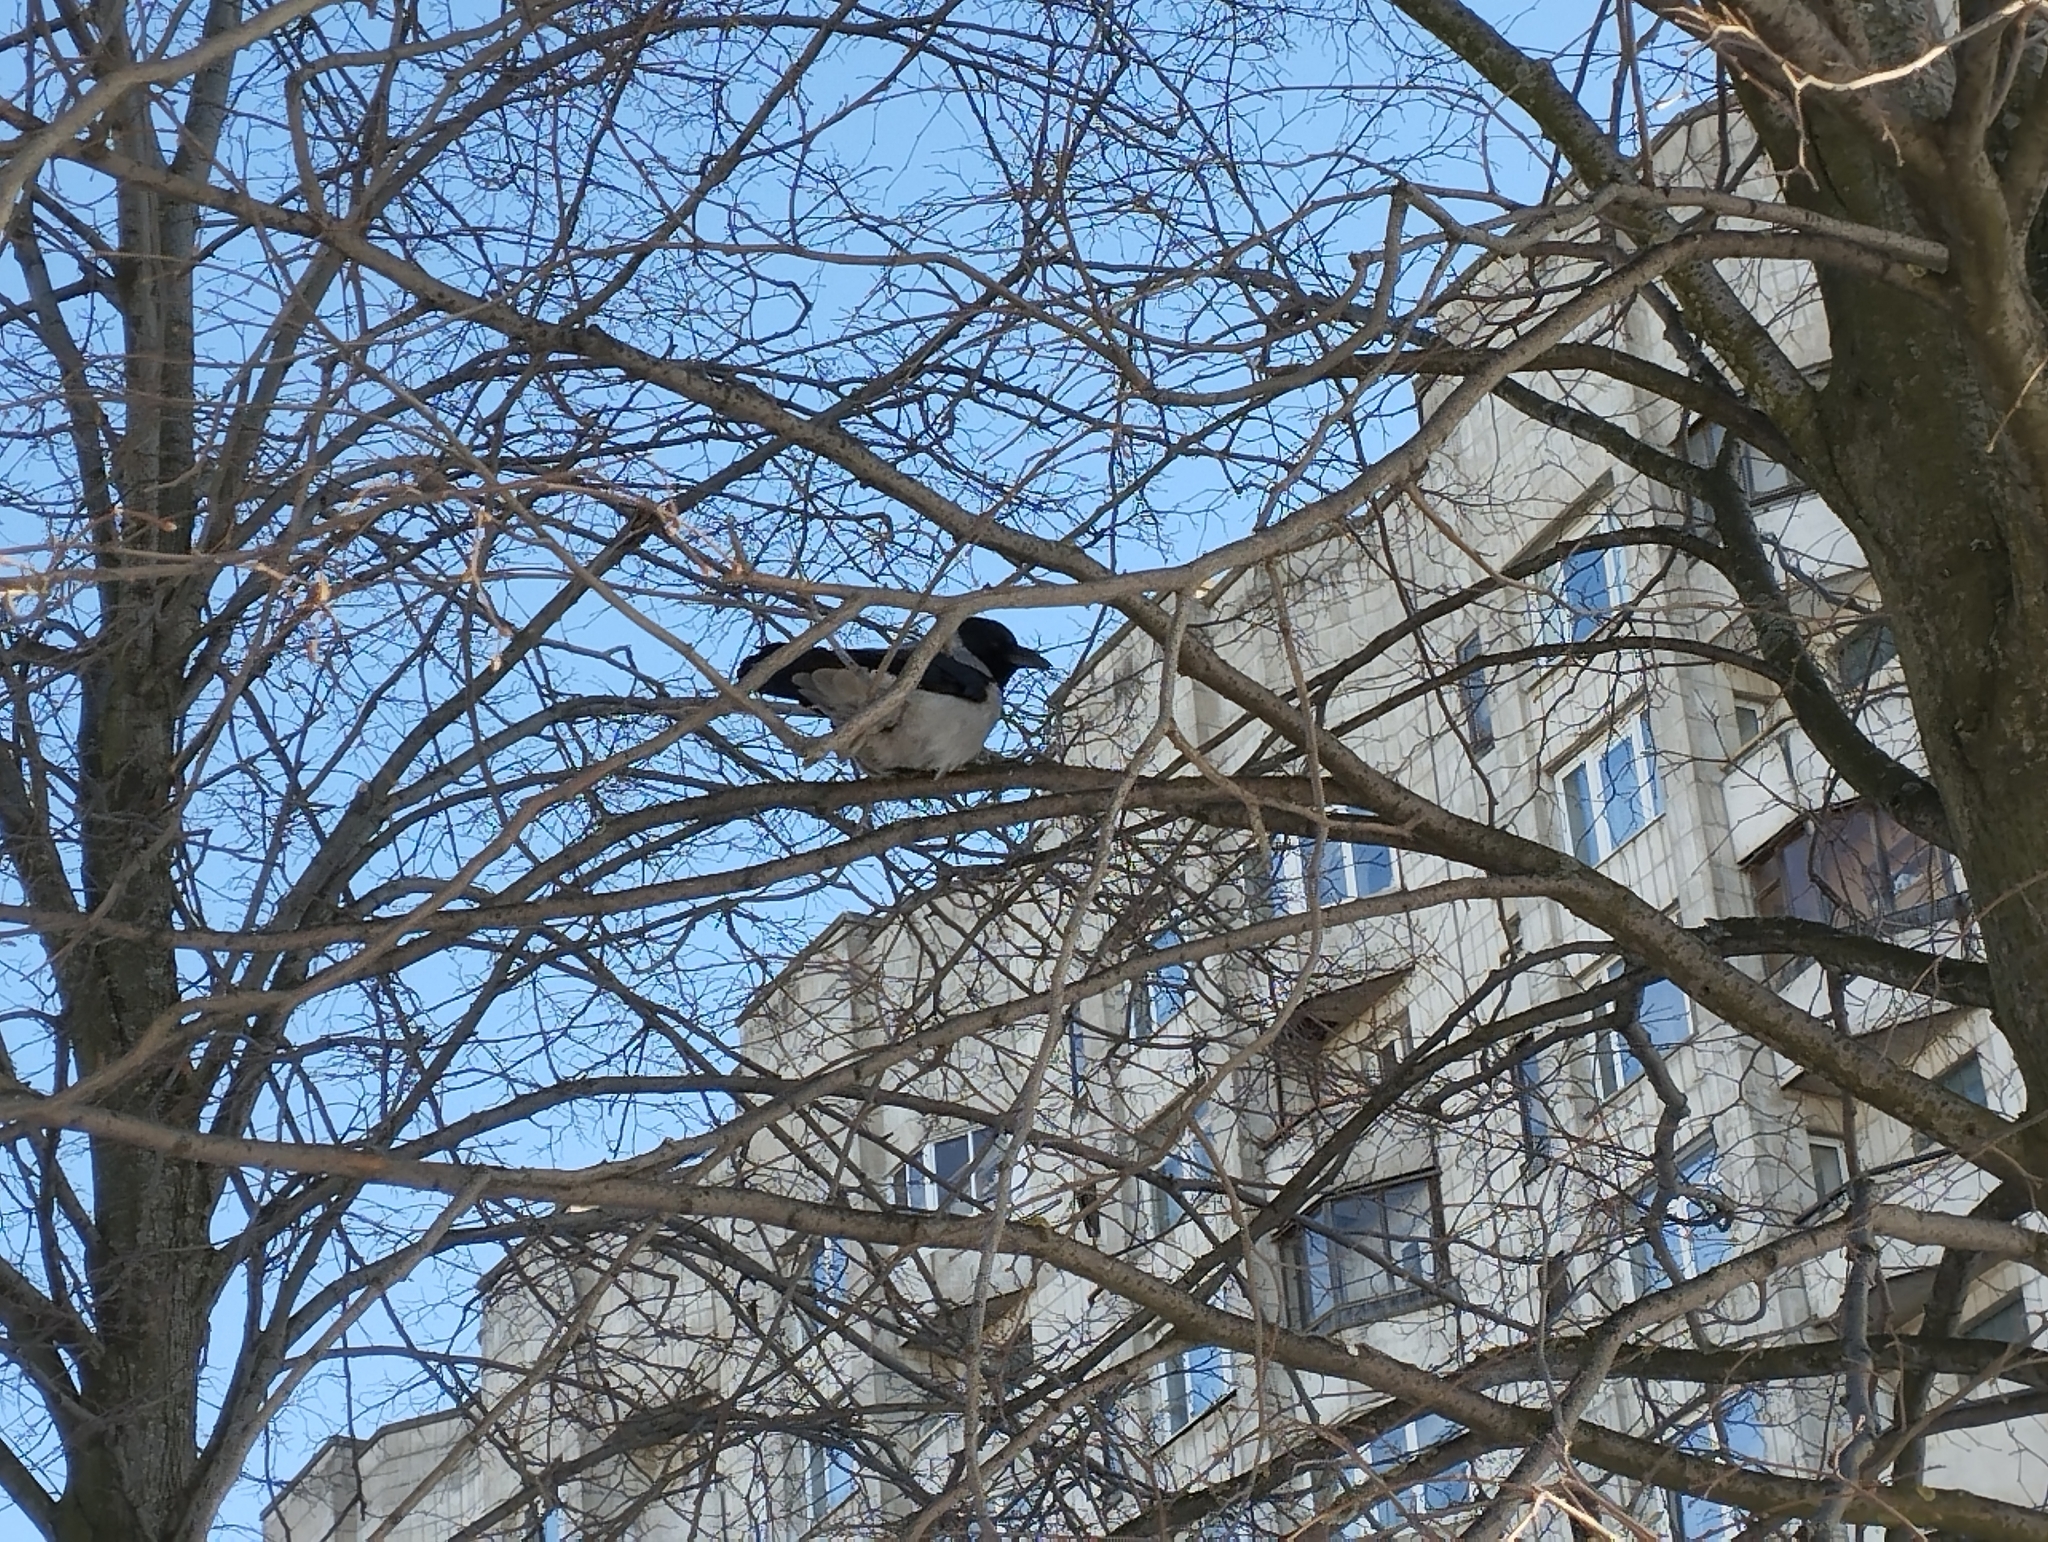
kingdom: Animalia
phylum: Chordata
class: Aves
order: Passeriformes
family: Corvidae
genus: Corvus
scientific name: Corvus cornix
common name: Hooded crow
